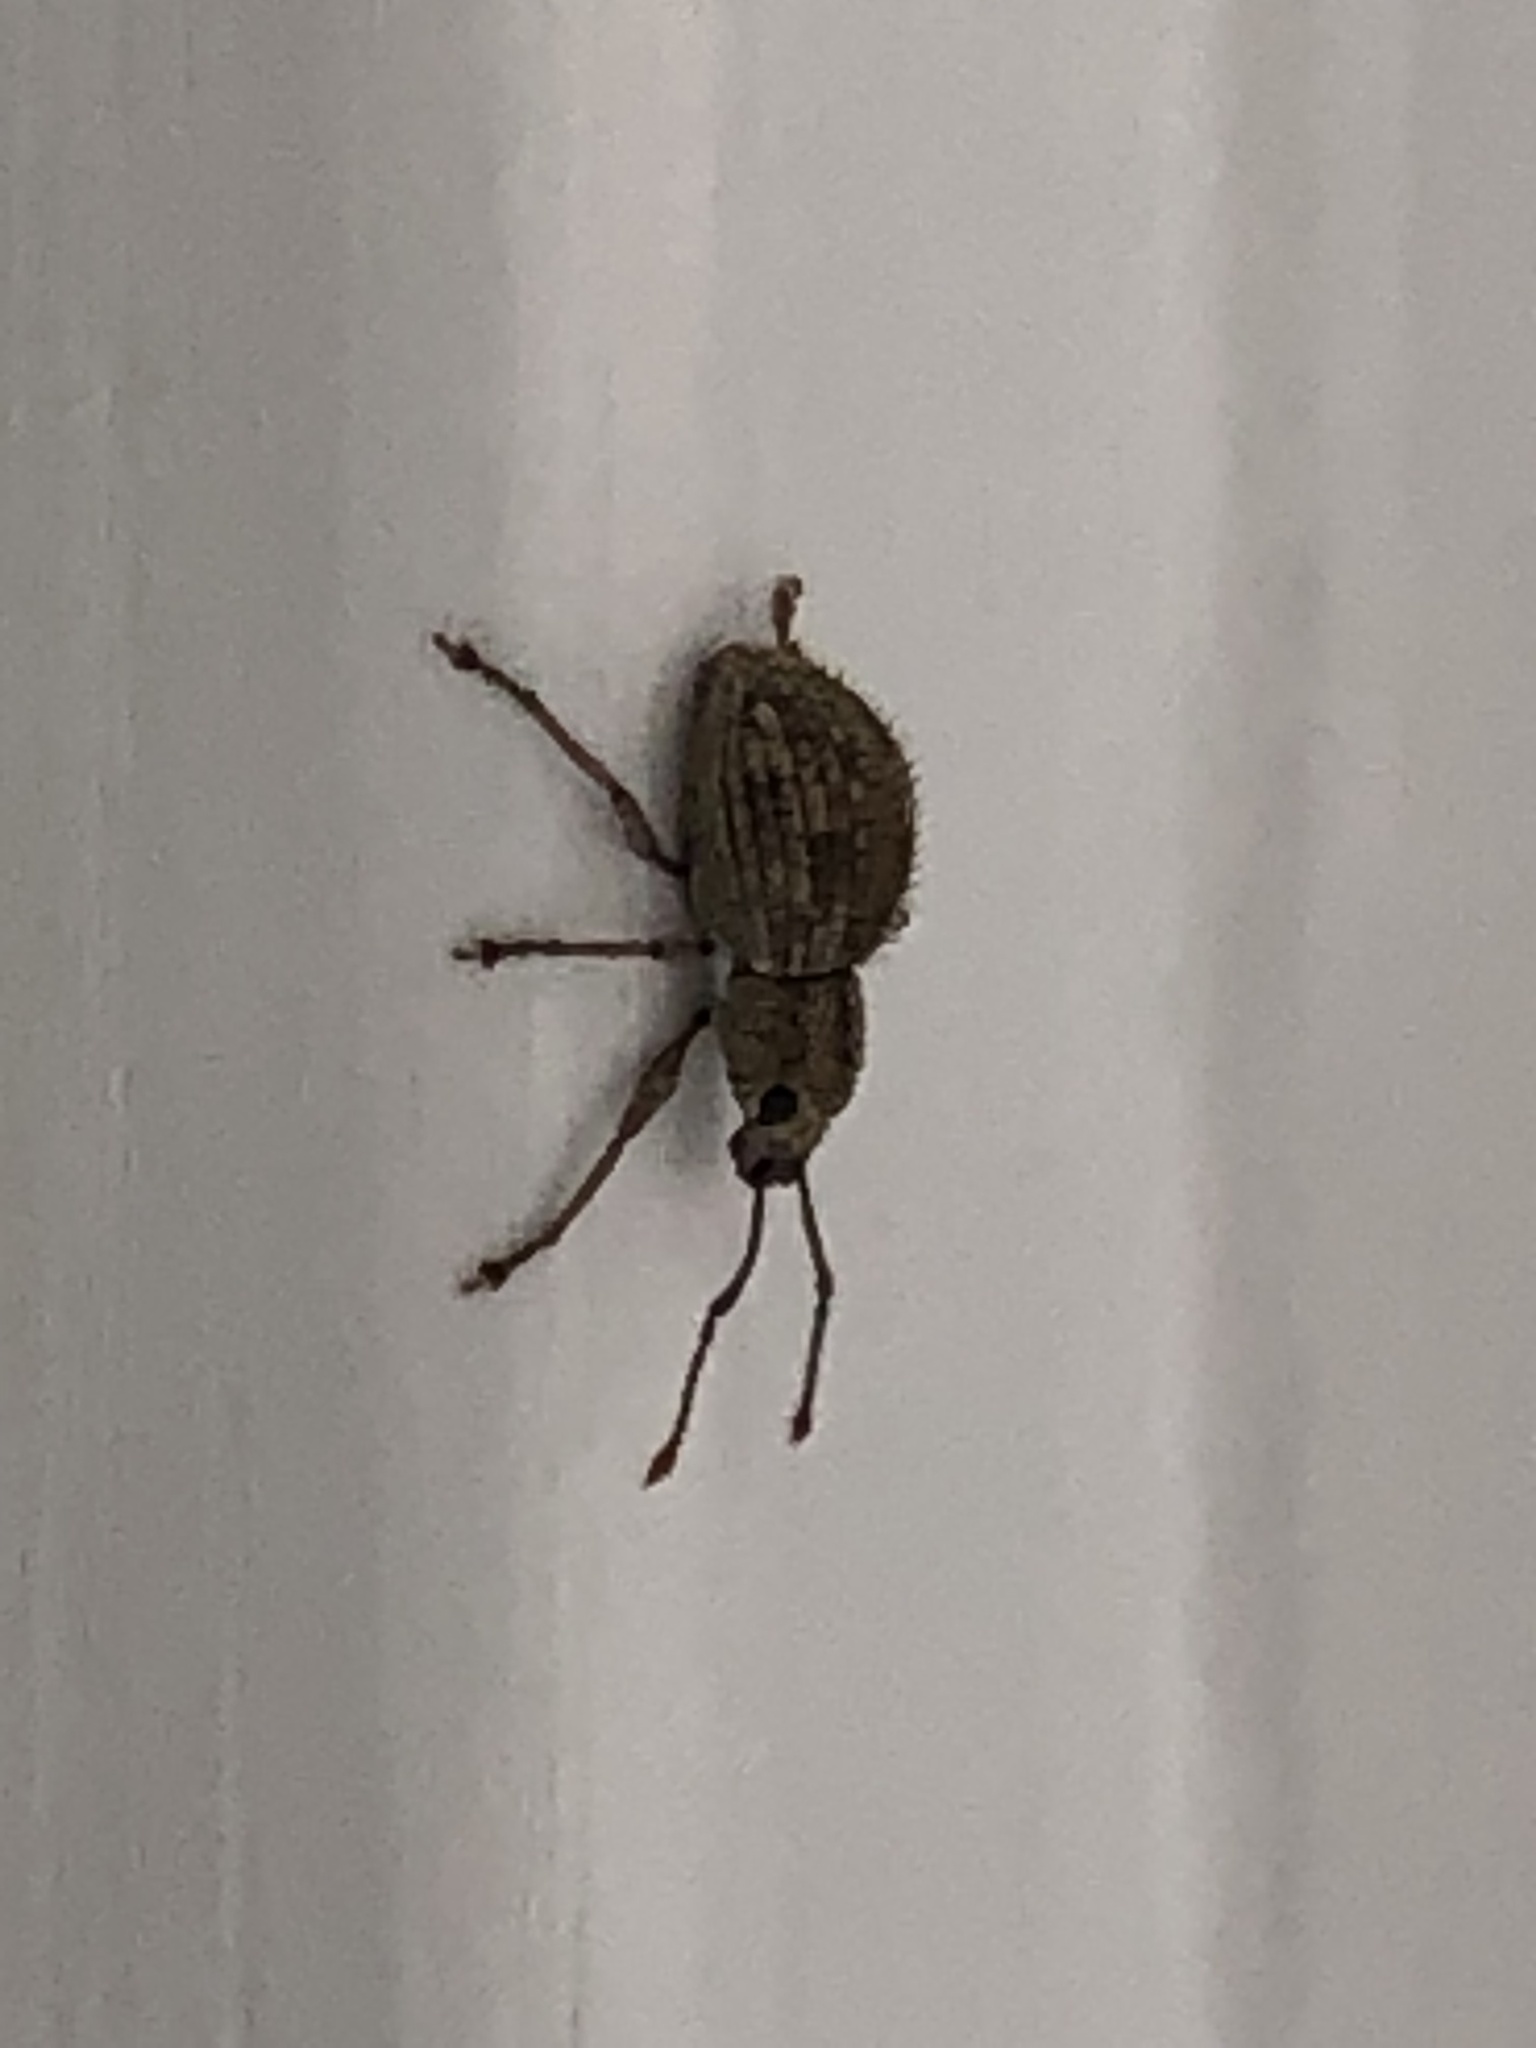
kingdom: Animalia
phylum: Arthropoda
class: Insecta
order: Coleoptera
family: Curculionidae
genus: Calomycterus
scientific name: Calomycterus setarius
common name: Weevil
